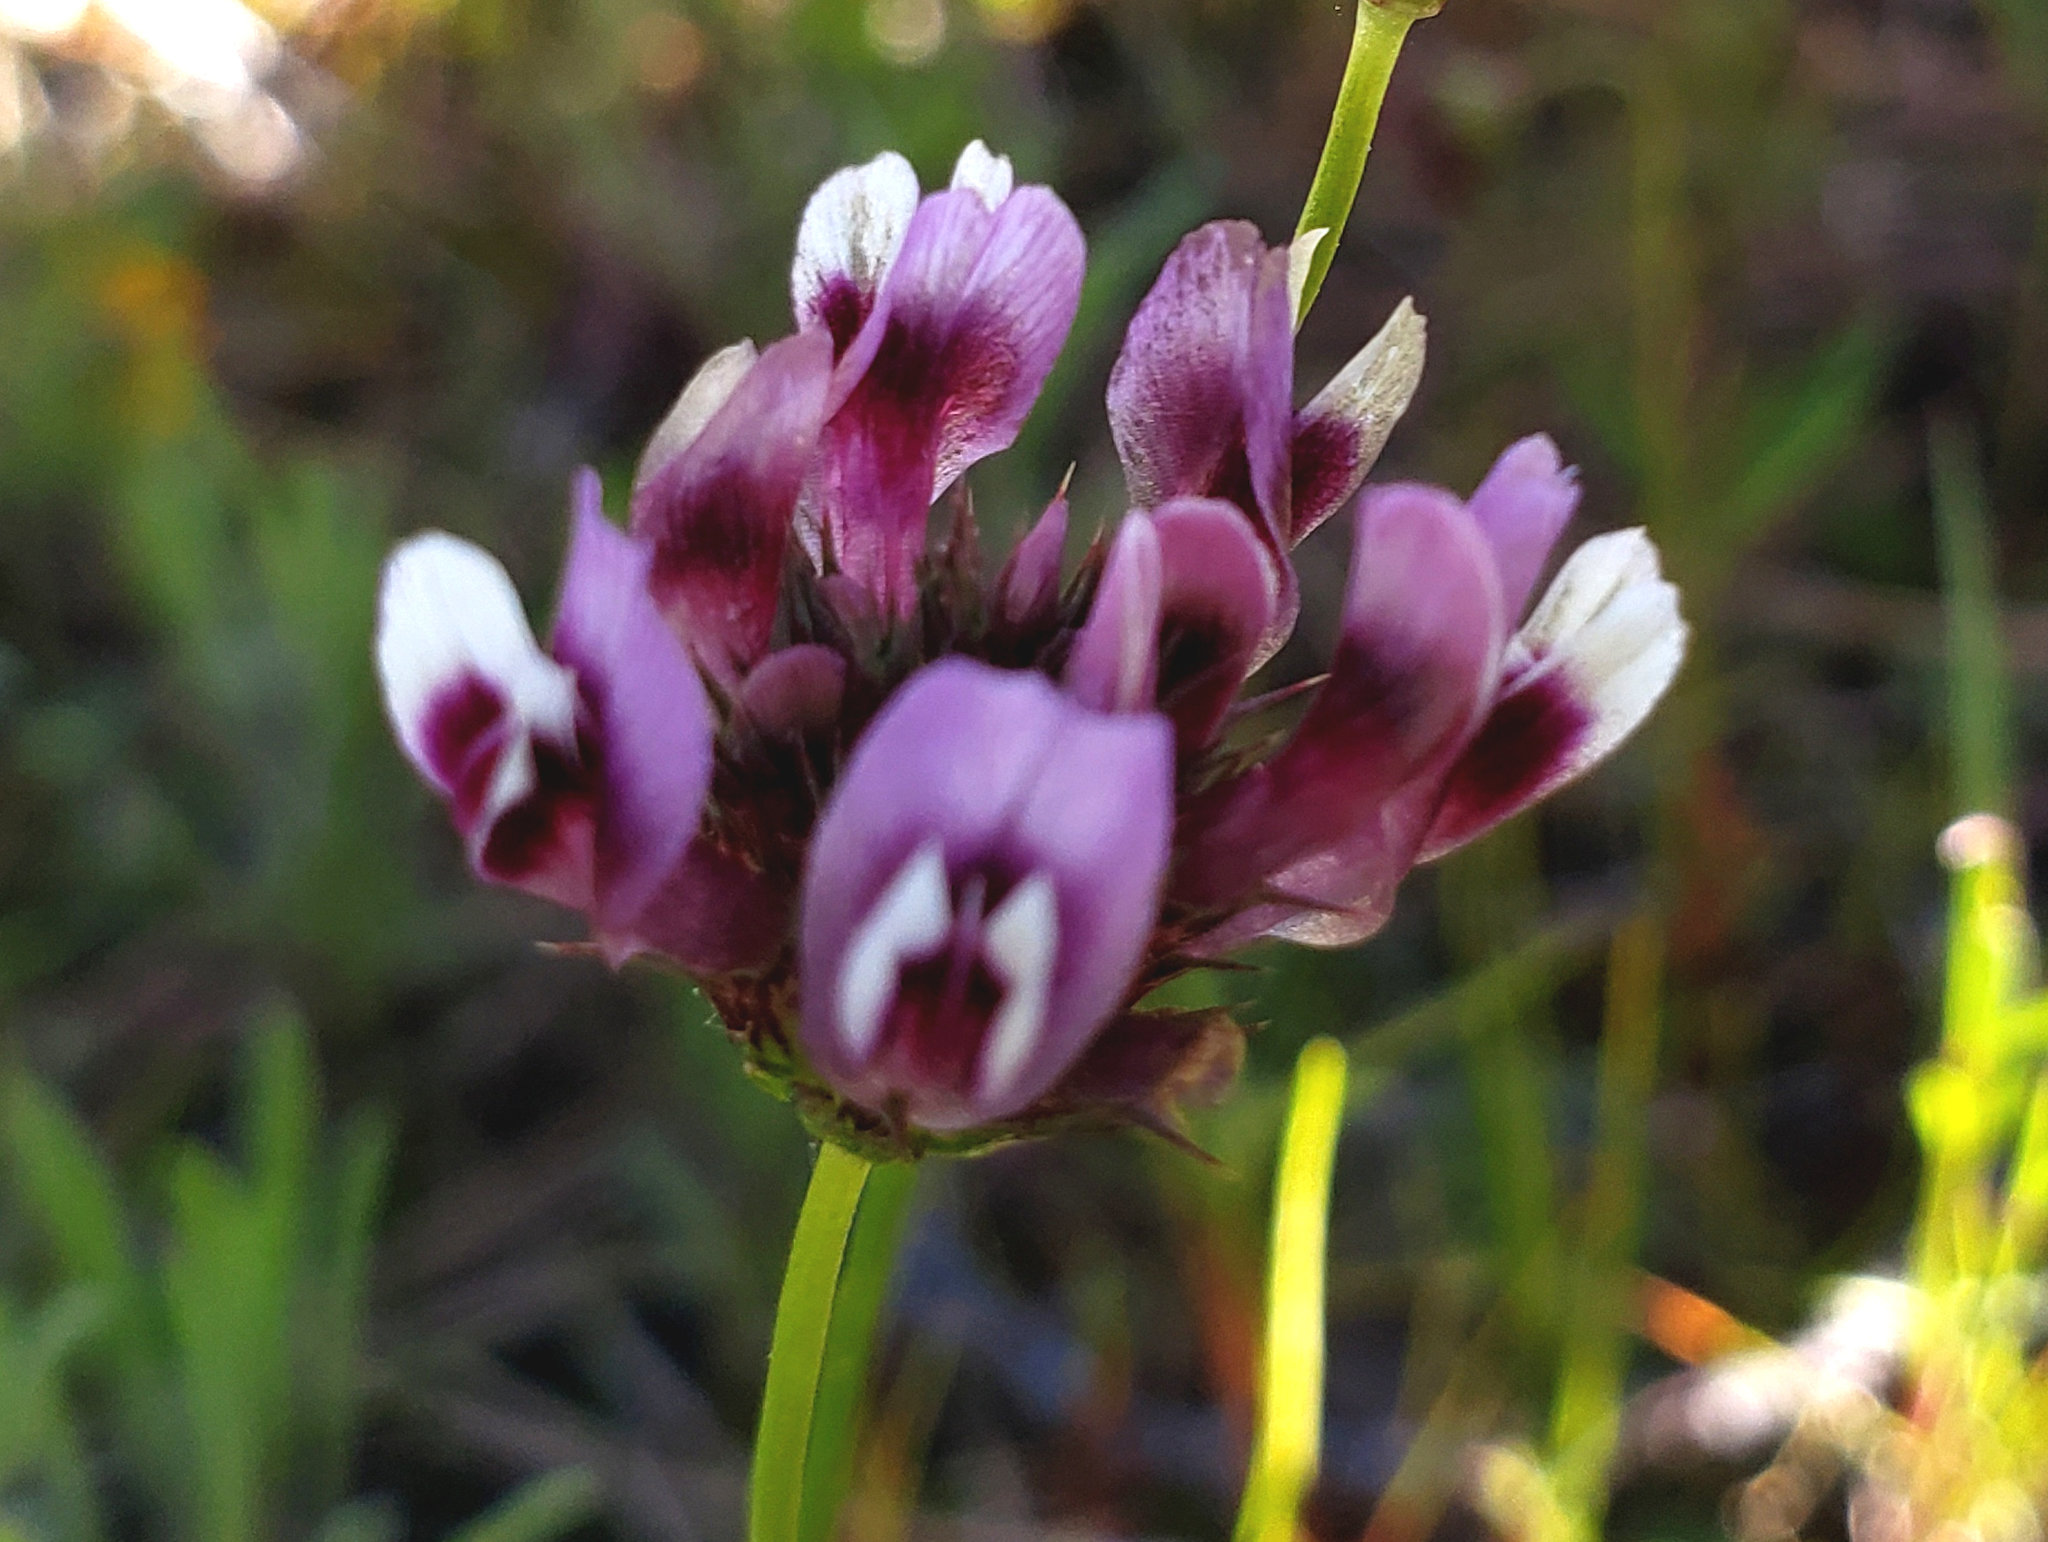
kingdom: Plantae
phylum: Tracheophyta
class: Magnoliopsida
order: Fabales
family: Fabaceae
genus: Trifolium
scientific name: Trifolium willdenovii
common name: Tomcat clover
